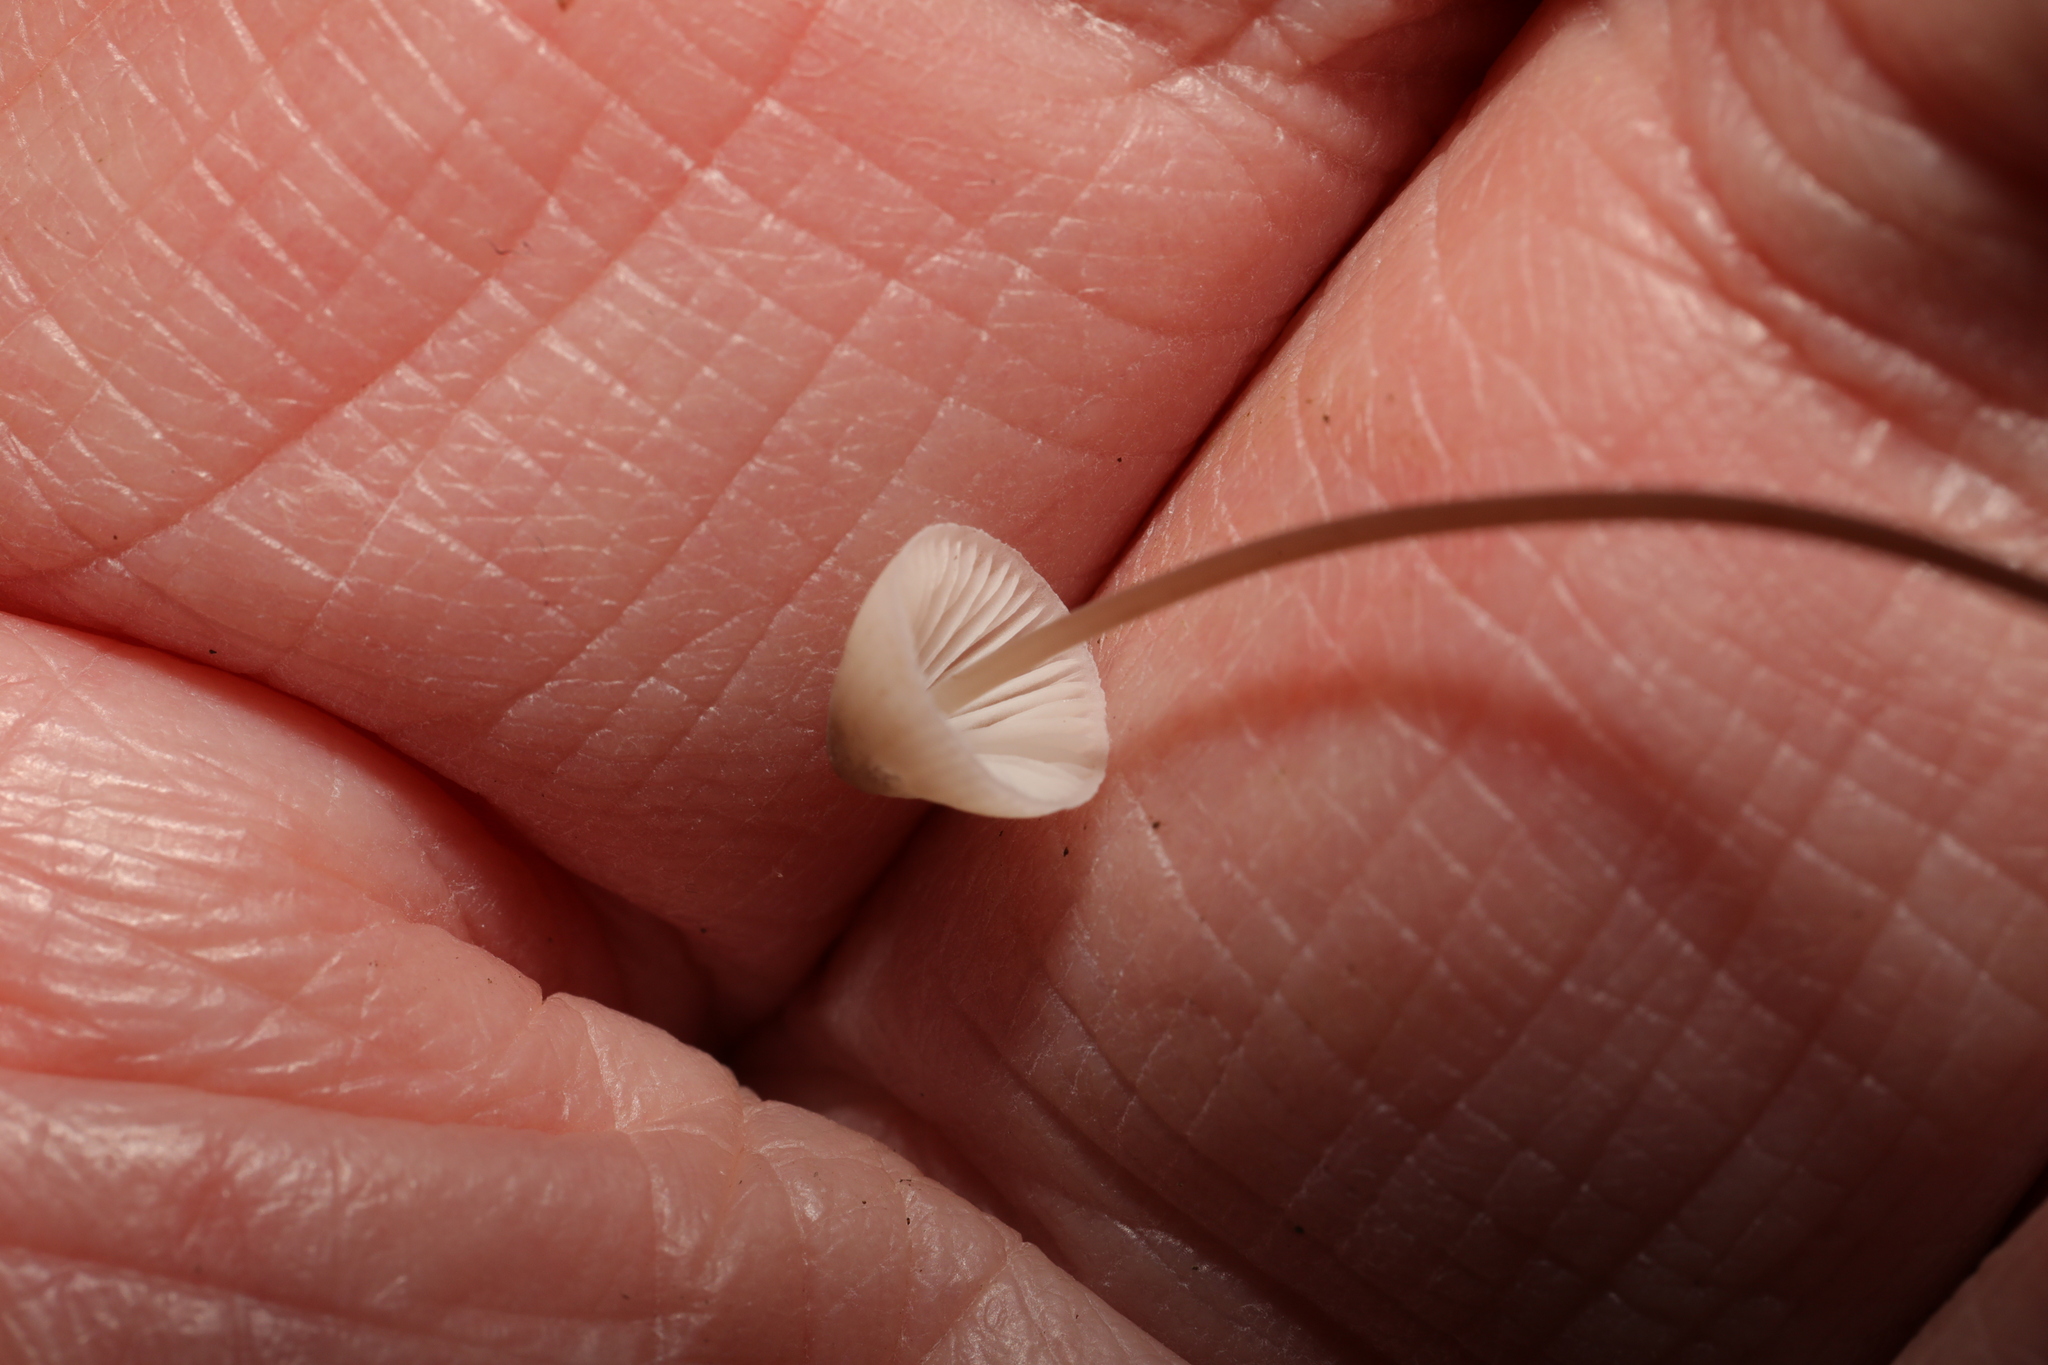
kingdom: Fungi
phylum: Basidiomycota
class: Agaricomycetes
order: Agaricales
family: Mycenaceae
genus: Mycena
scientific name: Mycena
